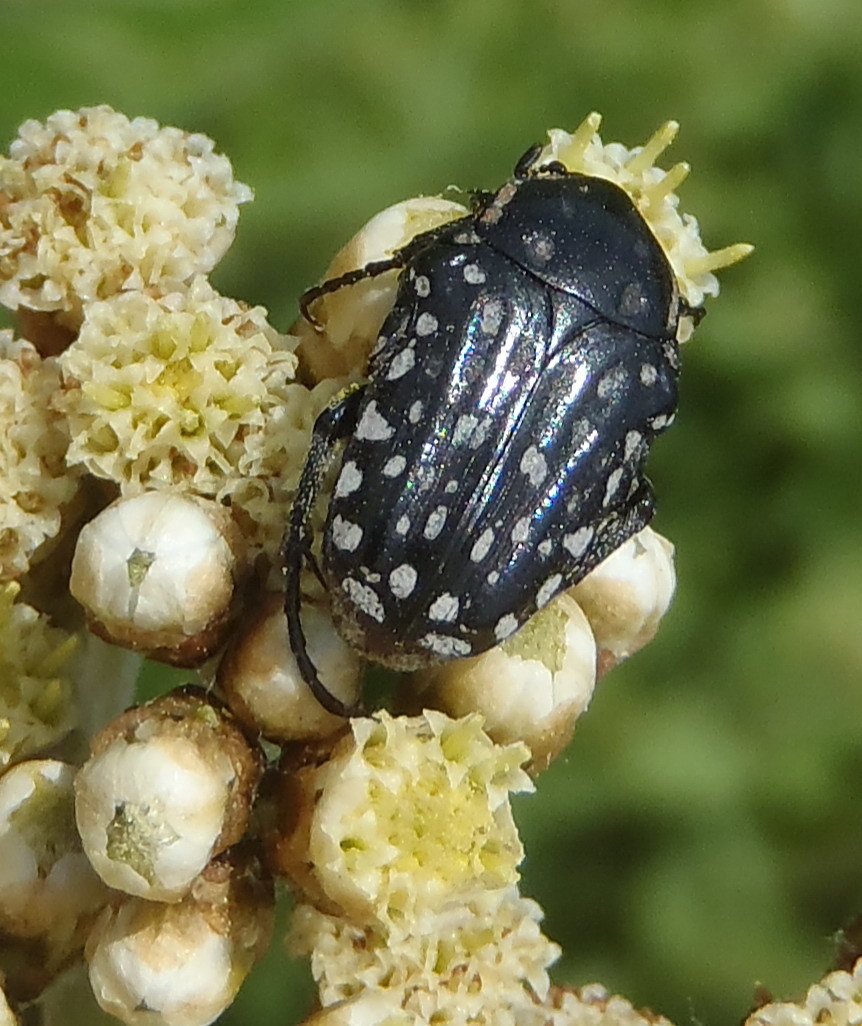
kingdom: Animalia
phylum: Arthropoda
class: Insecta
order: Coleoptera
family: Scarabaeidae
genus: Cyrtothyrea
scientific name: Cyrtothyrea testaceoguttata
